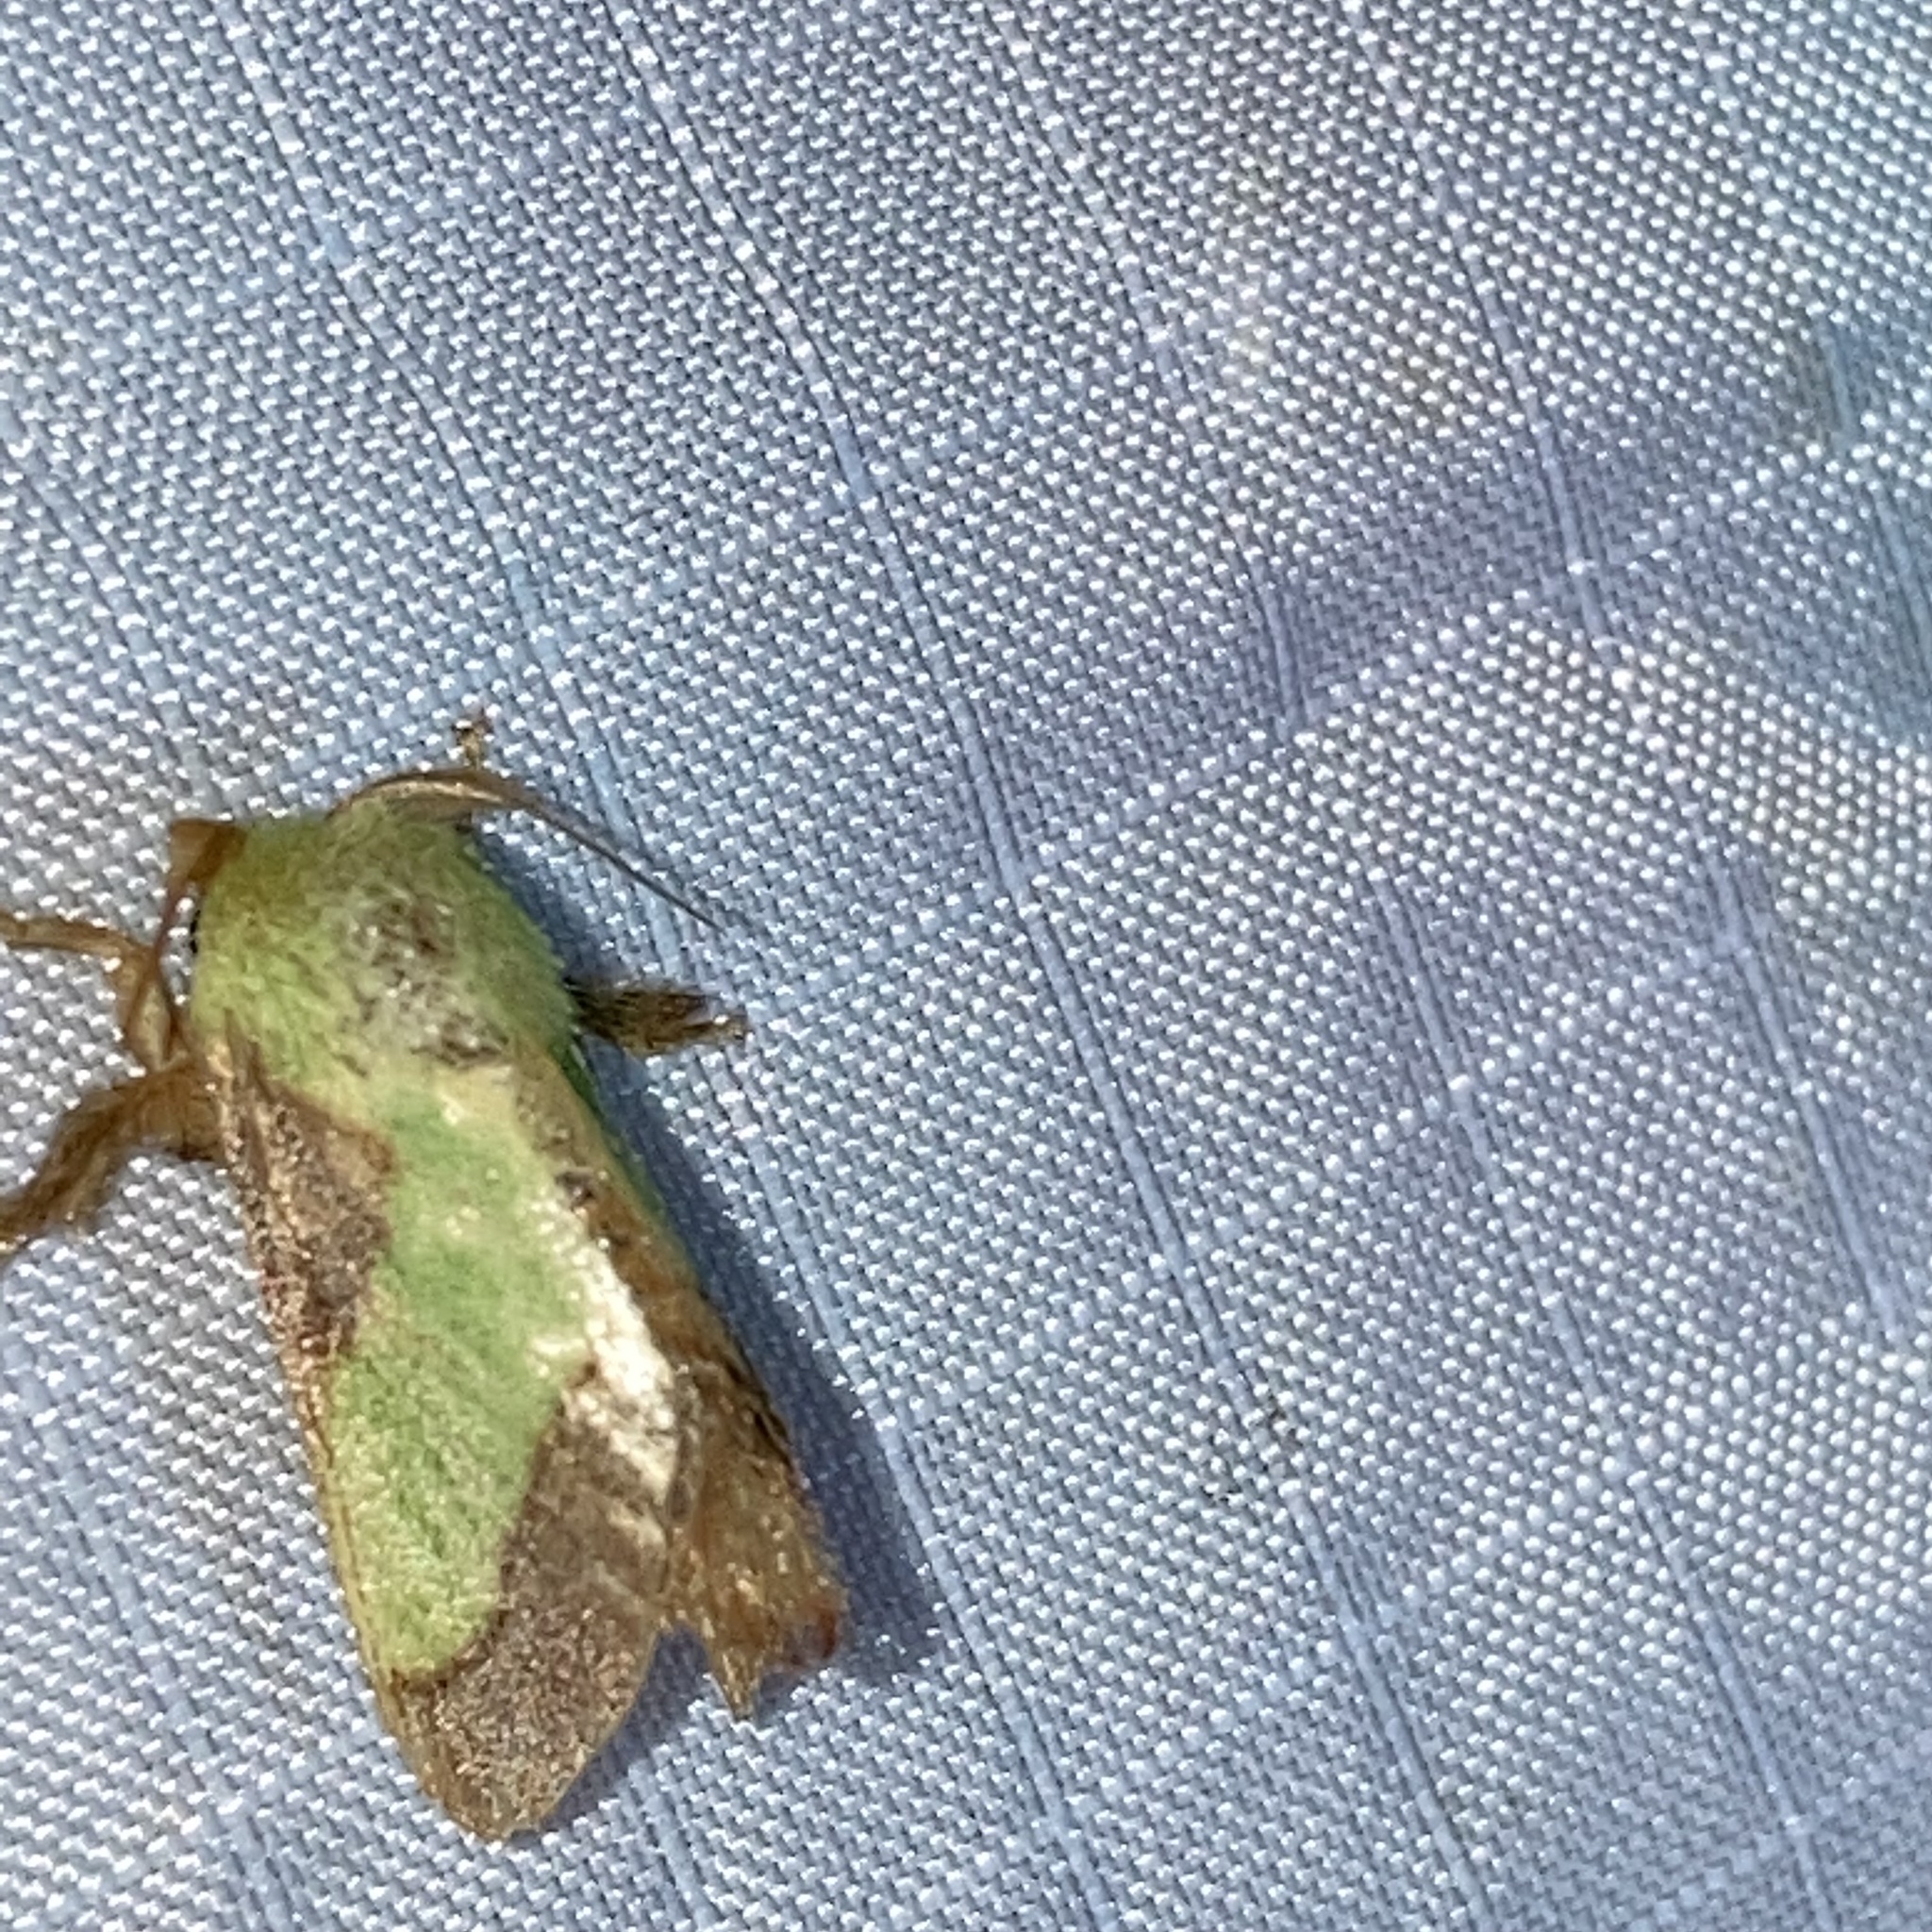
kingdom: Animalia
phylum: Arthropoda
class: Insecta
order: Lepidoptera
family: Limacodidae
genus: Parasa
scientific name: Parasa chloris
